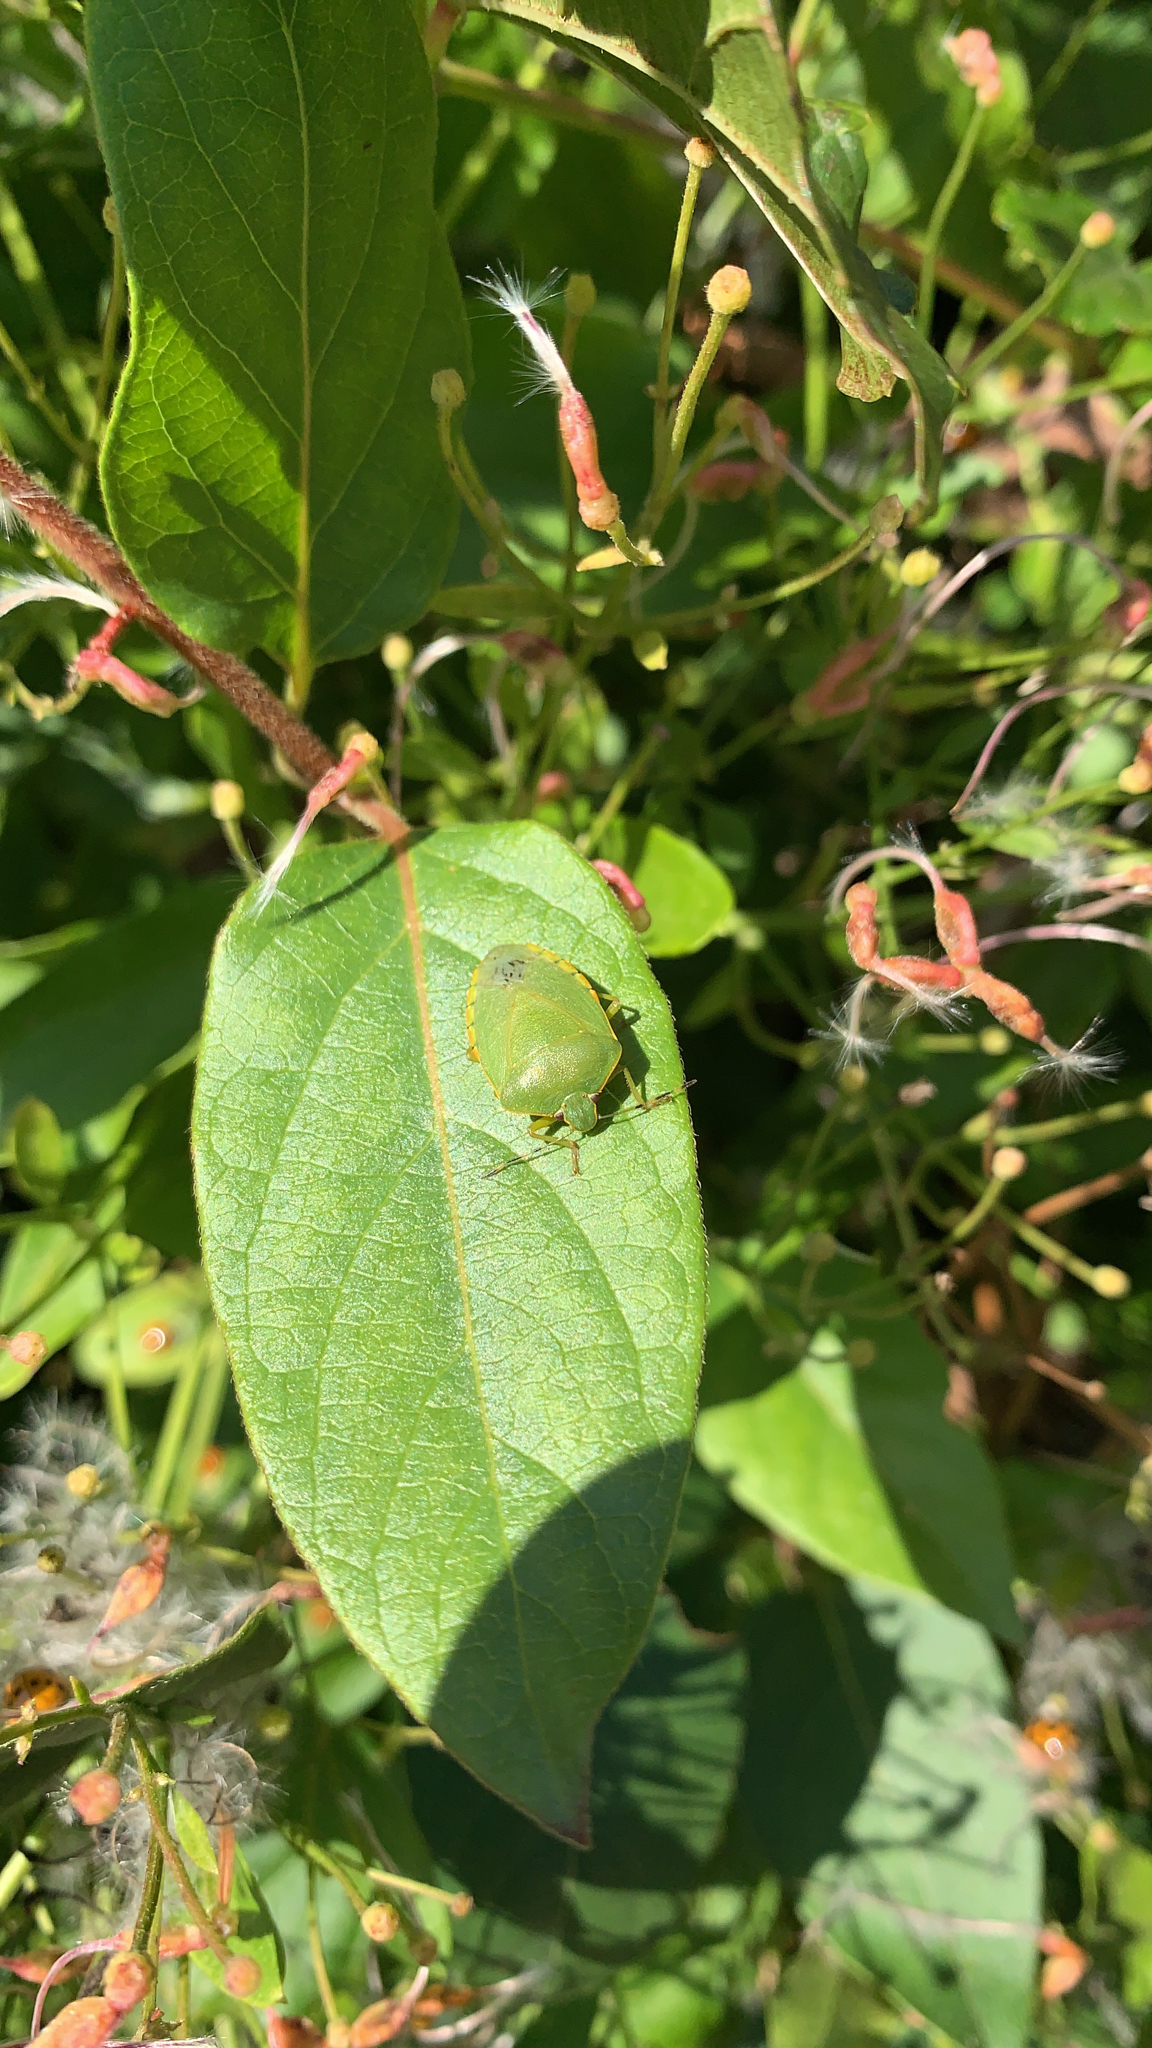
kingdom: Animalia
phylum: Arthropoda
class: Insecta
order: Hemiptera
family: Pentatomidae
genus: Chinavia
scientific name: Chinavia hilaris
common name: Green stink bug
